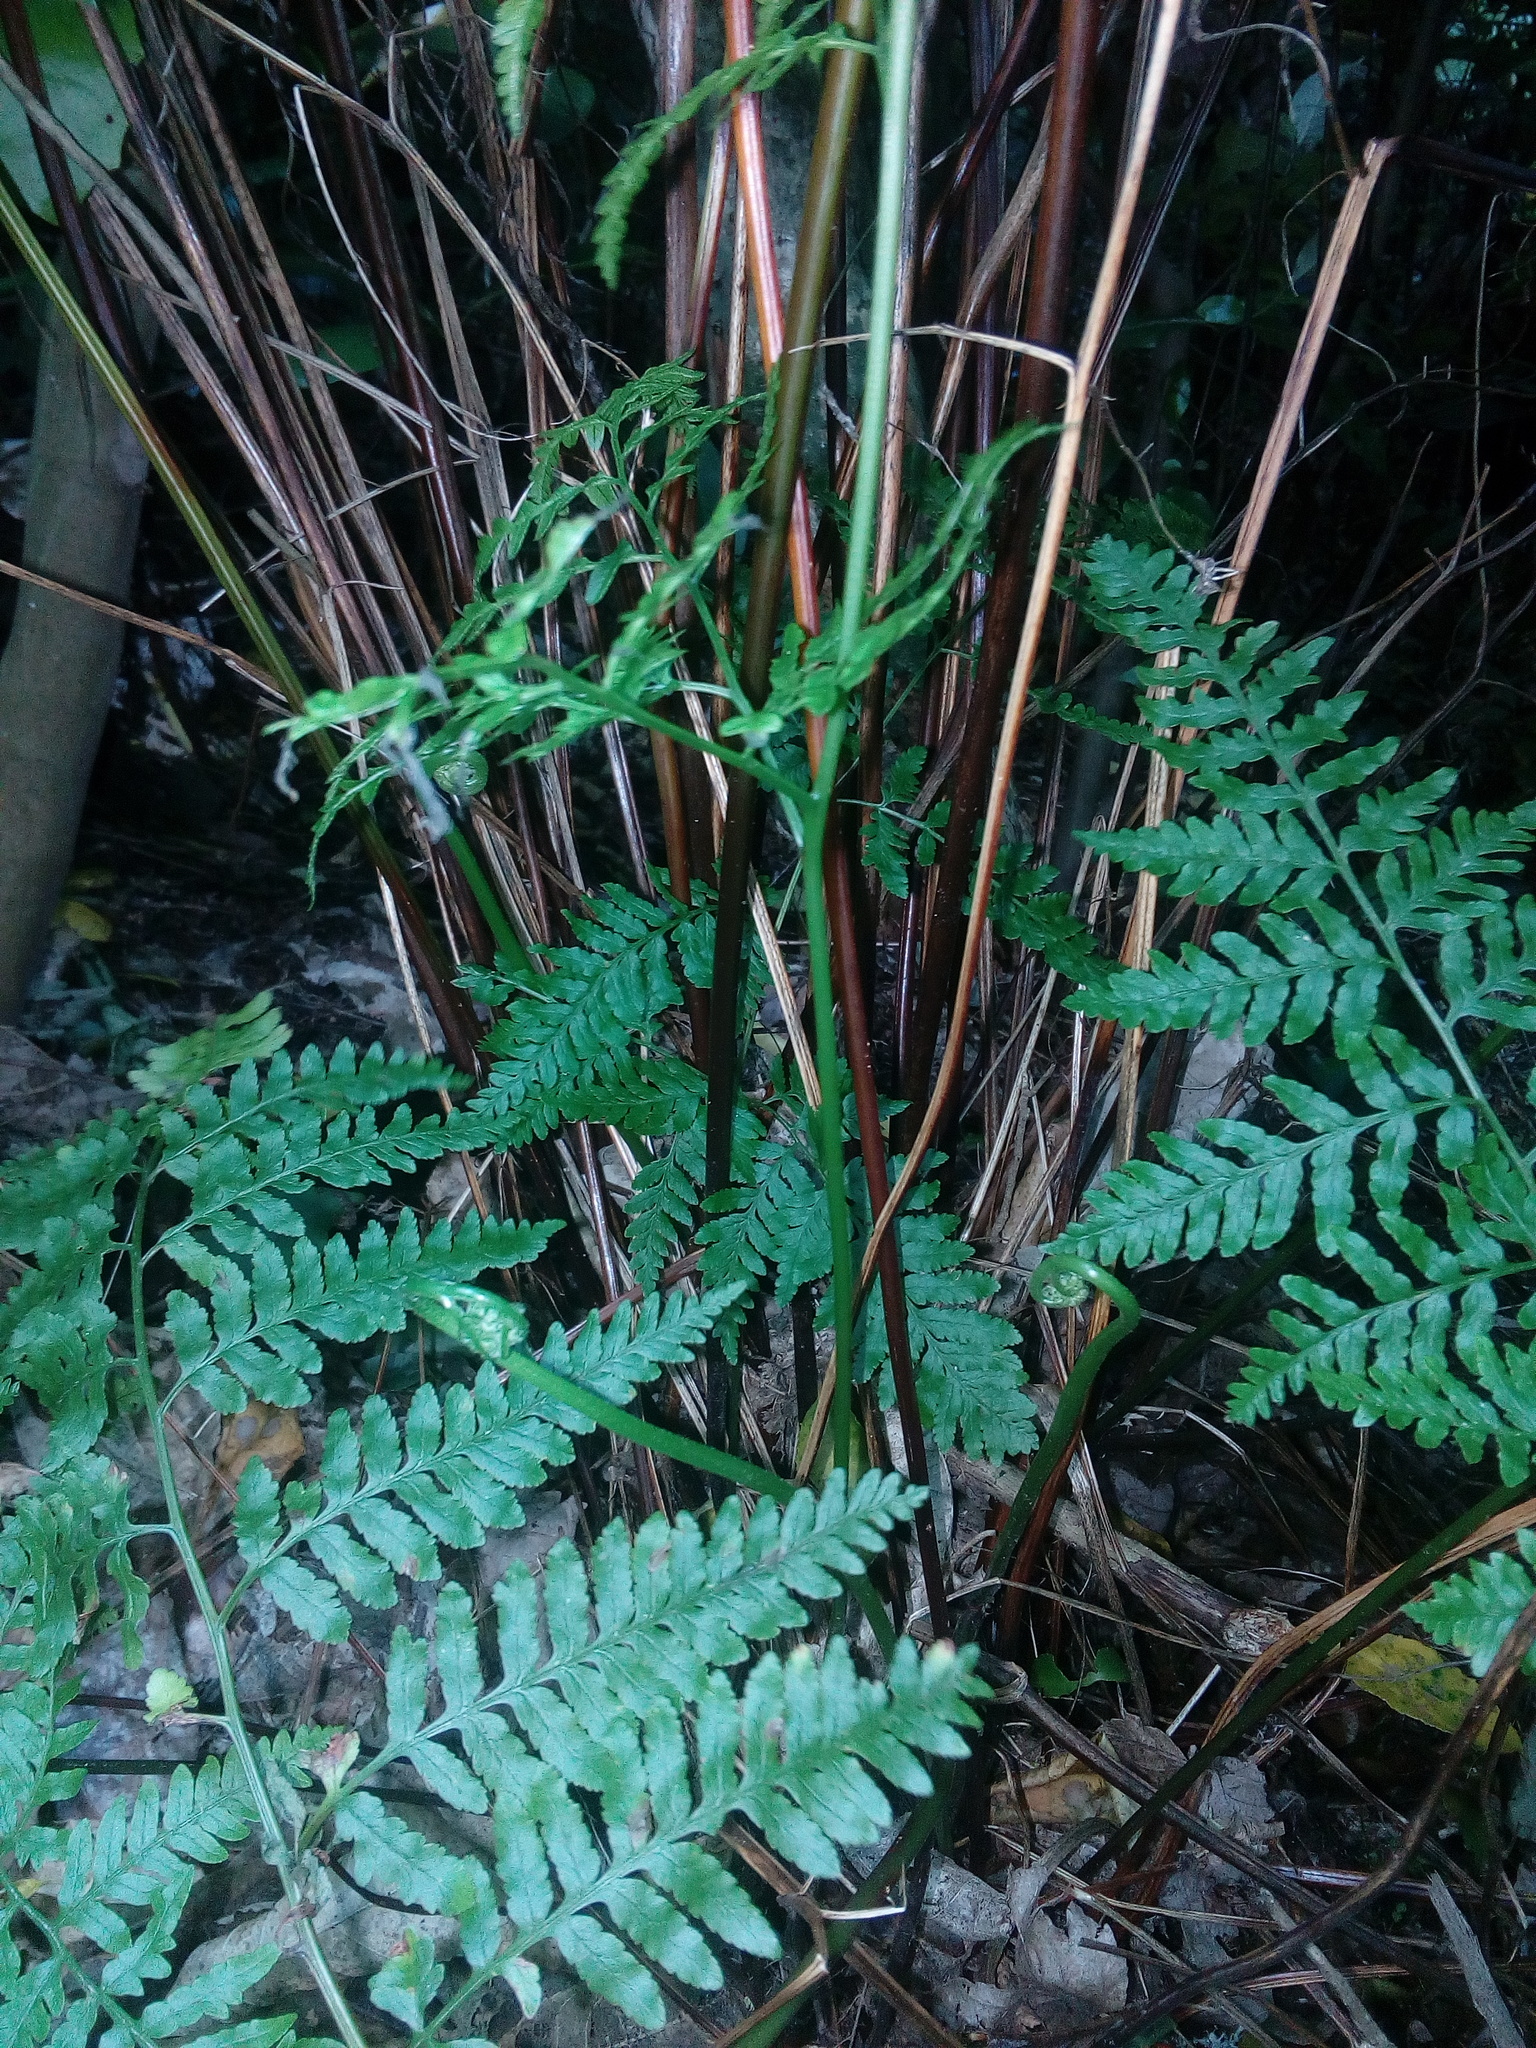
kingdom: Plantae
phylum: Tracheophyta
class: Polypodiopsida
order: Polypodiales
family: Pteridaceae
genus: Pteris
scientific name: Pteris tremula
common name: Australian brake
